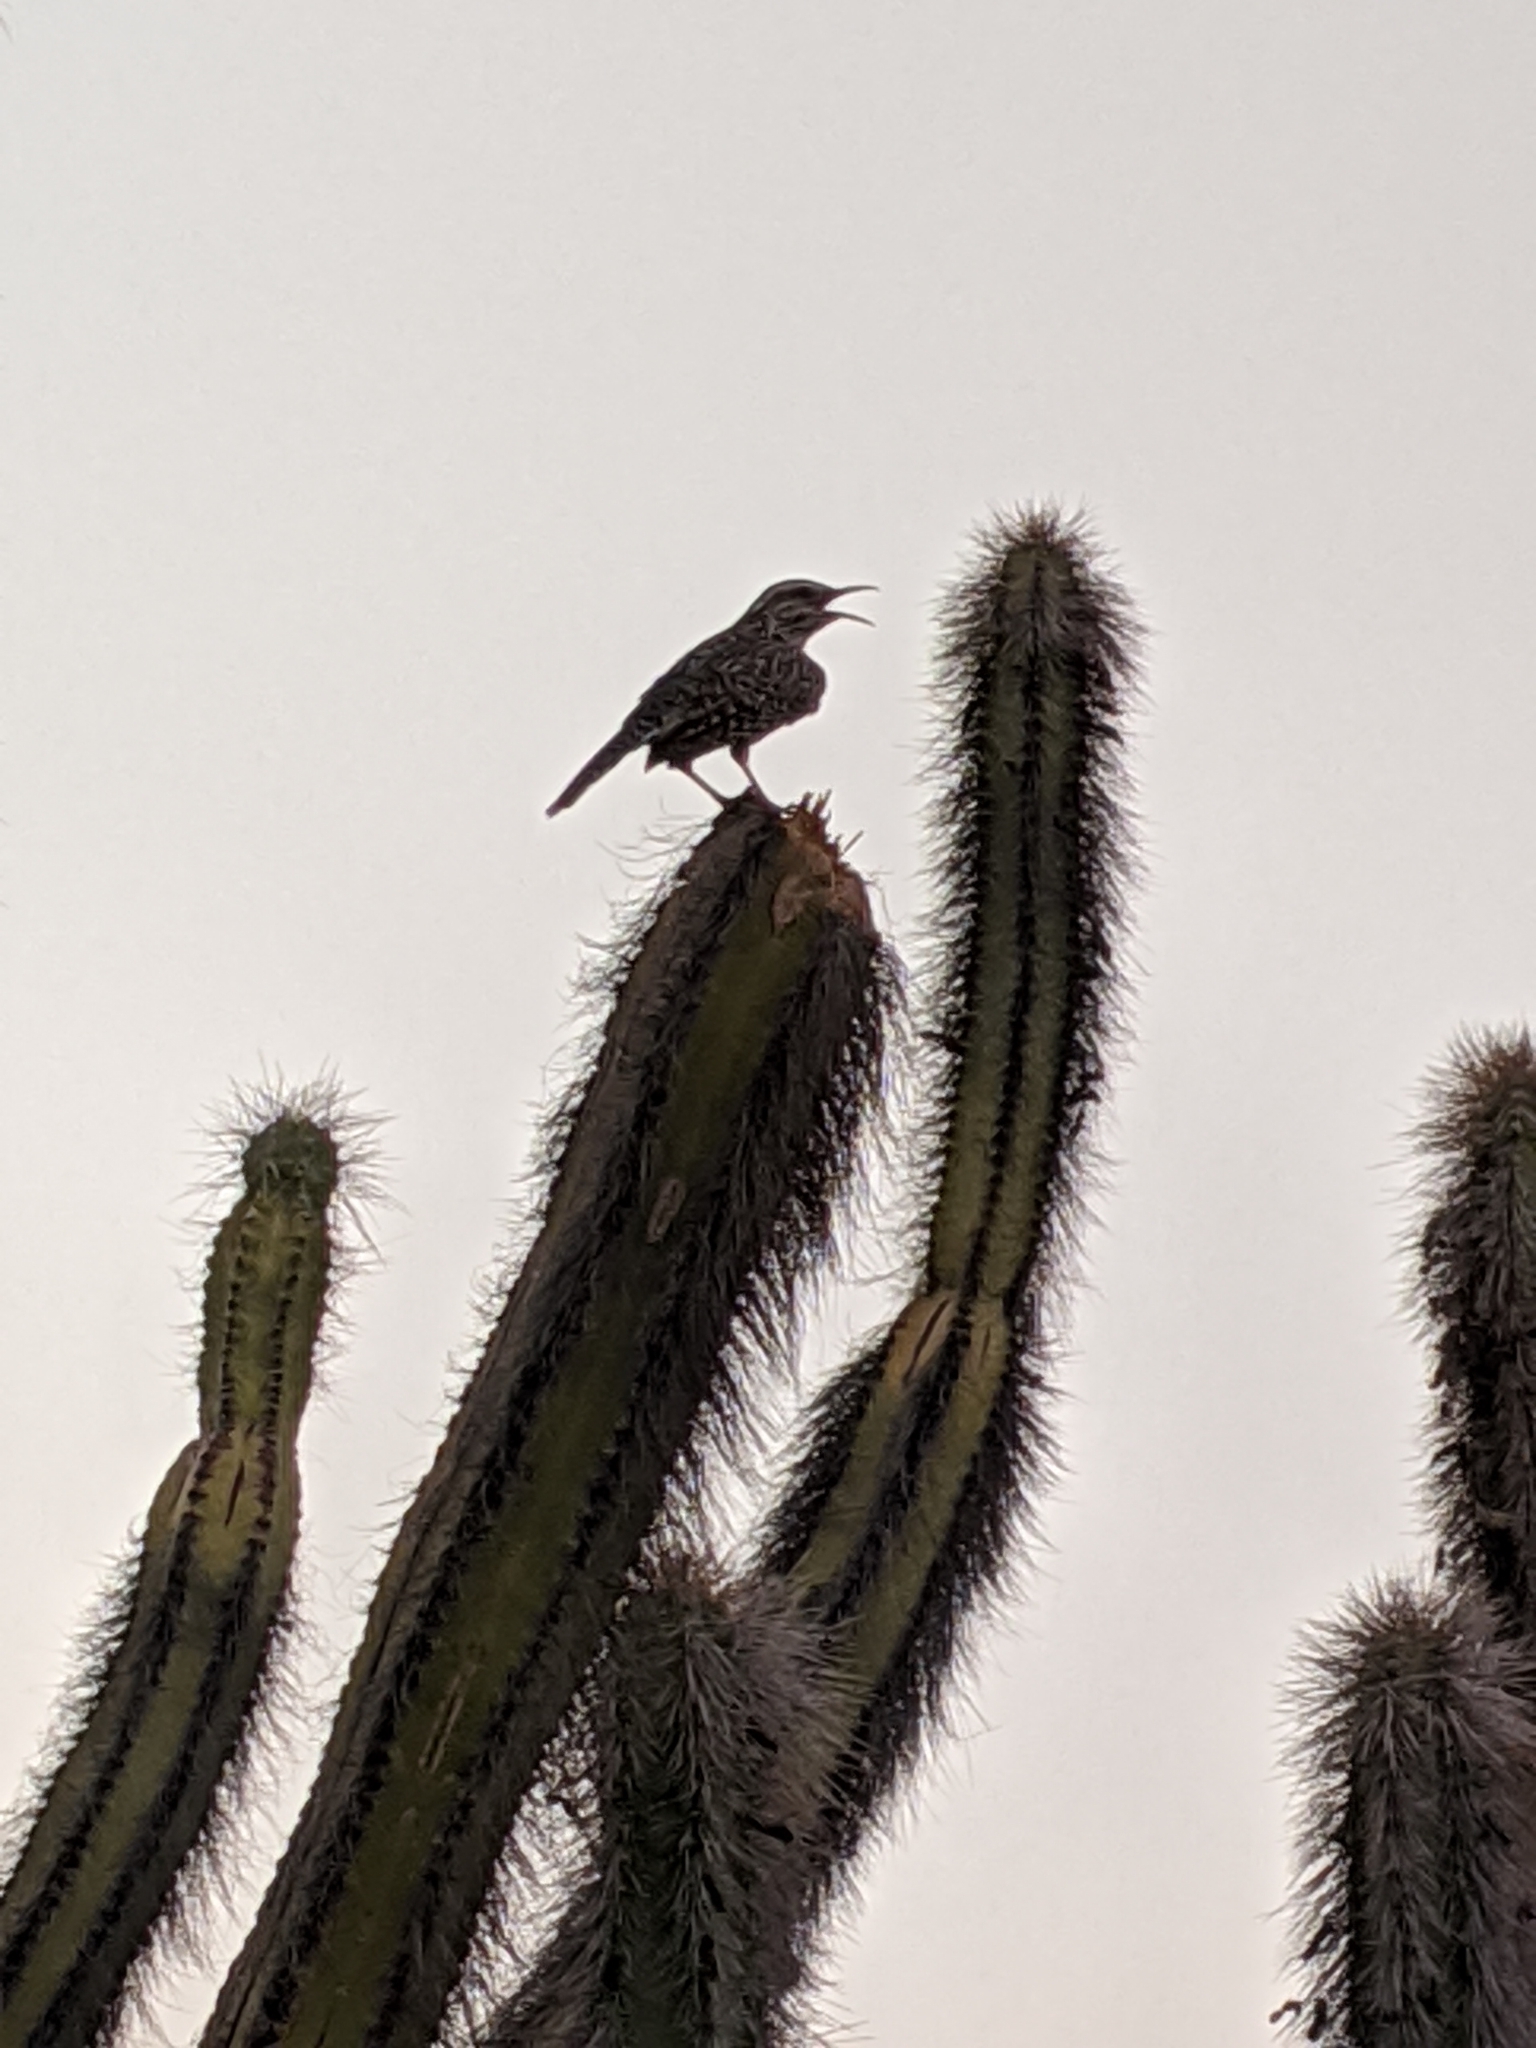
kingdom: Animalia
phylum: Chordata
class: Aves
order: Passeriformes
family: Troglodytidae
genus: Campylorhynchus
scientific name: Campylorhynchus brunneicapillus
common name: Cactus wren
